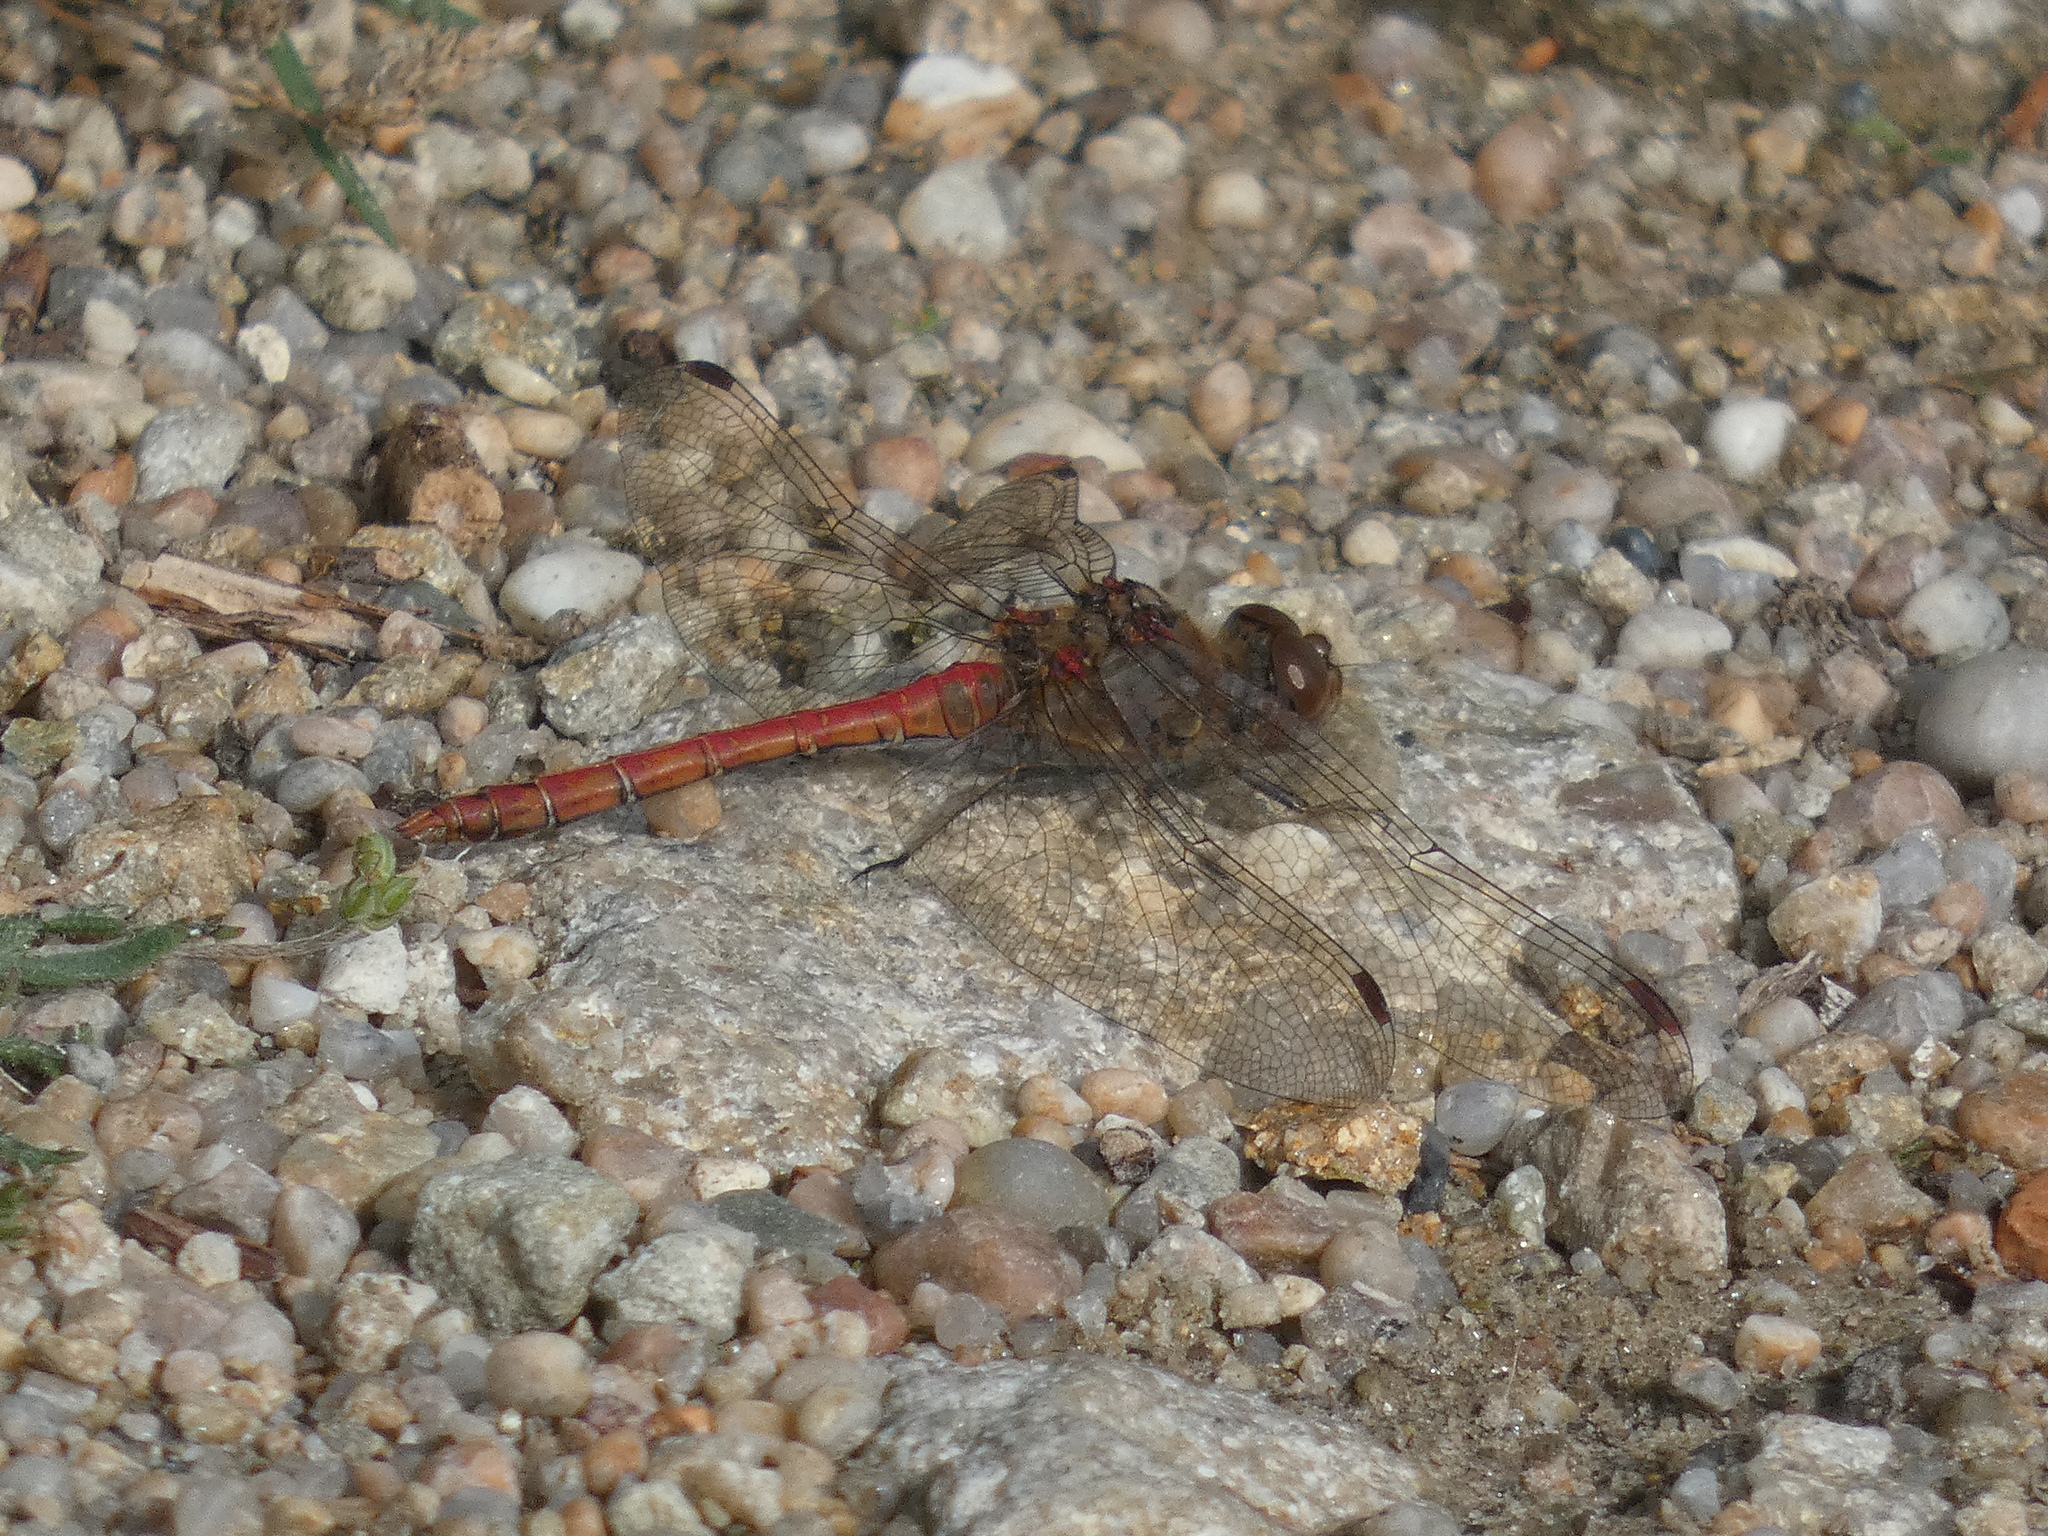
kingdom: Animalia
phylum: Arthropoda
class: Insecta
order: Odonata
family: Libellulidae
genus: Sympetrum
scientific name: Sympetrum striolatum
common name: Common darter
